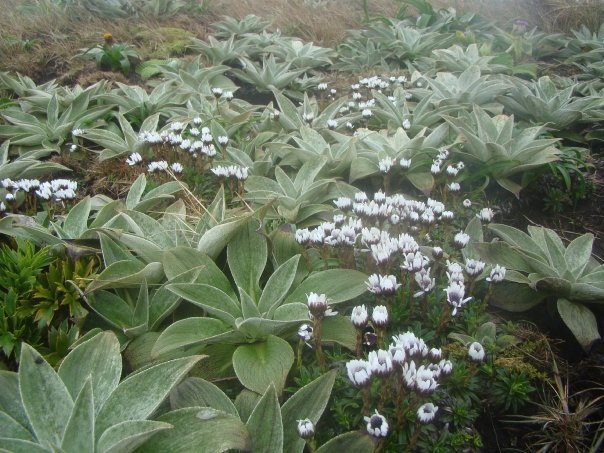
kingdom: Plantae
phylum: Tracheophyta
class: Magnoliopsida
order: Asterales
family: Asteraceae
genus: Damnamenia
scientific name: Damnamenia vernicosa
